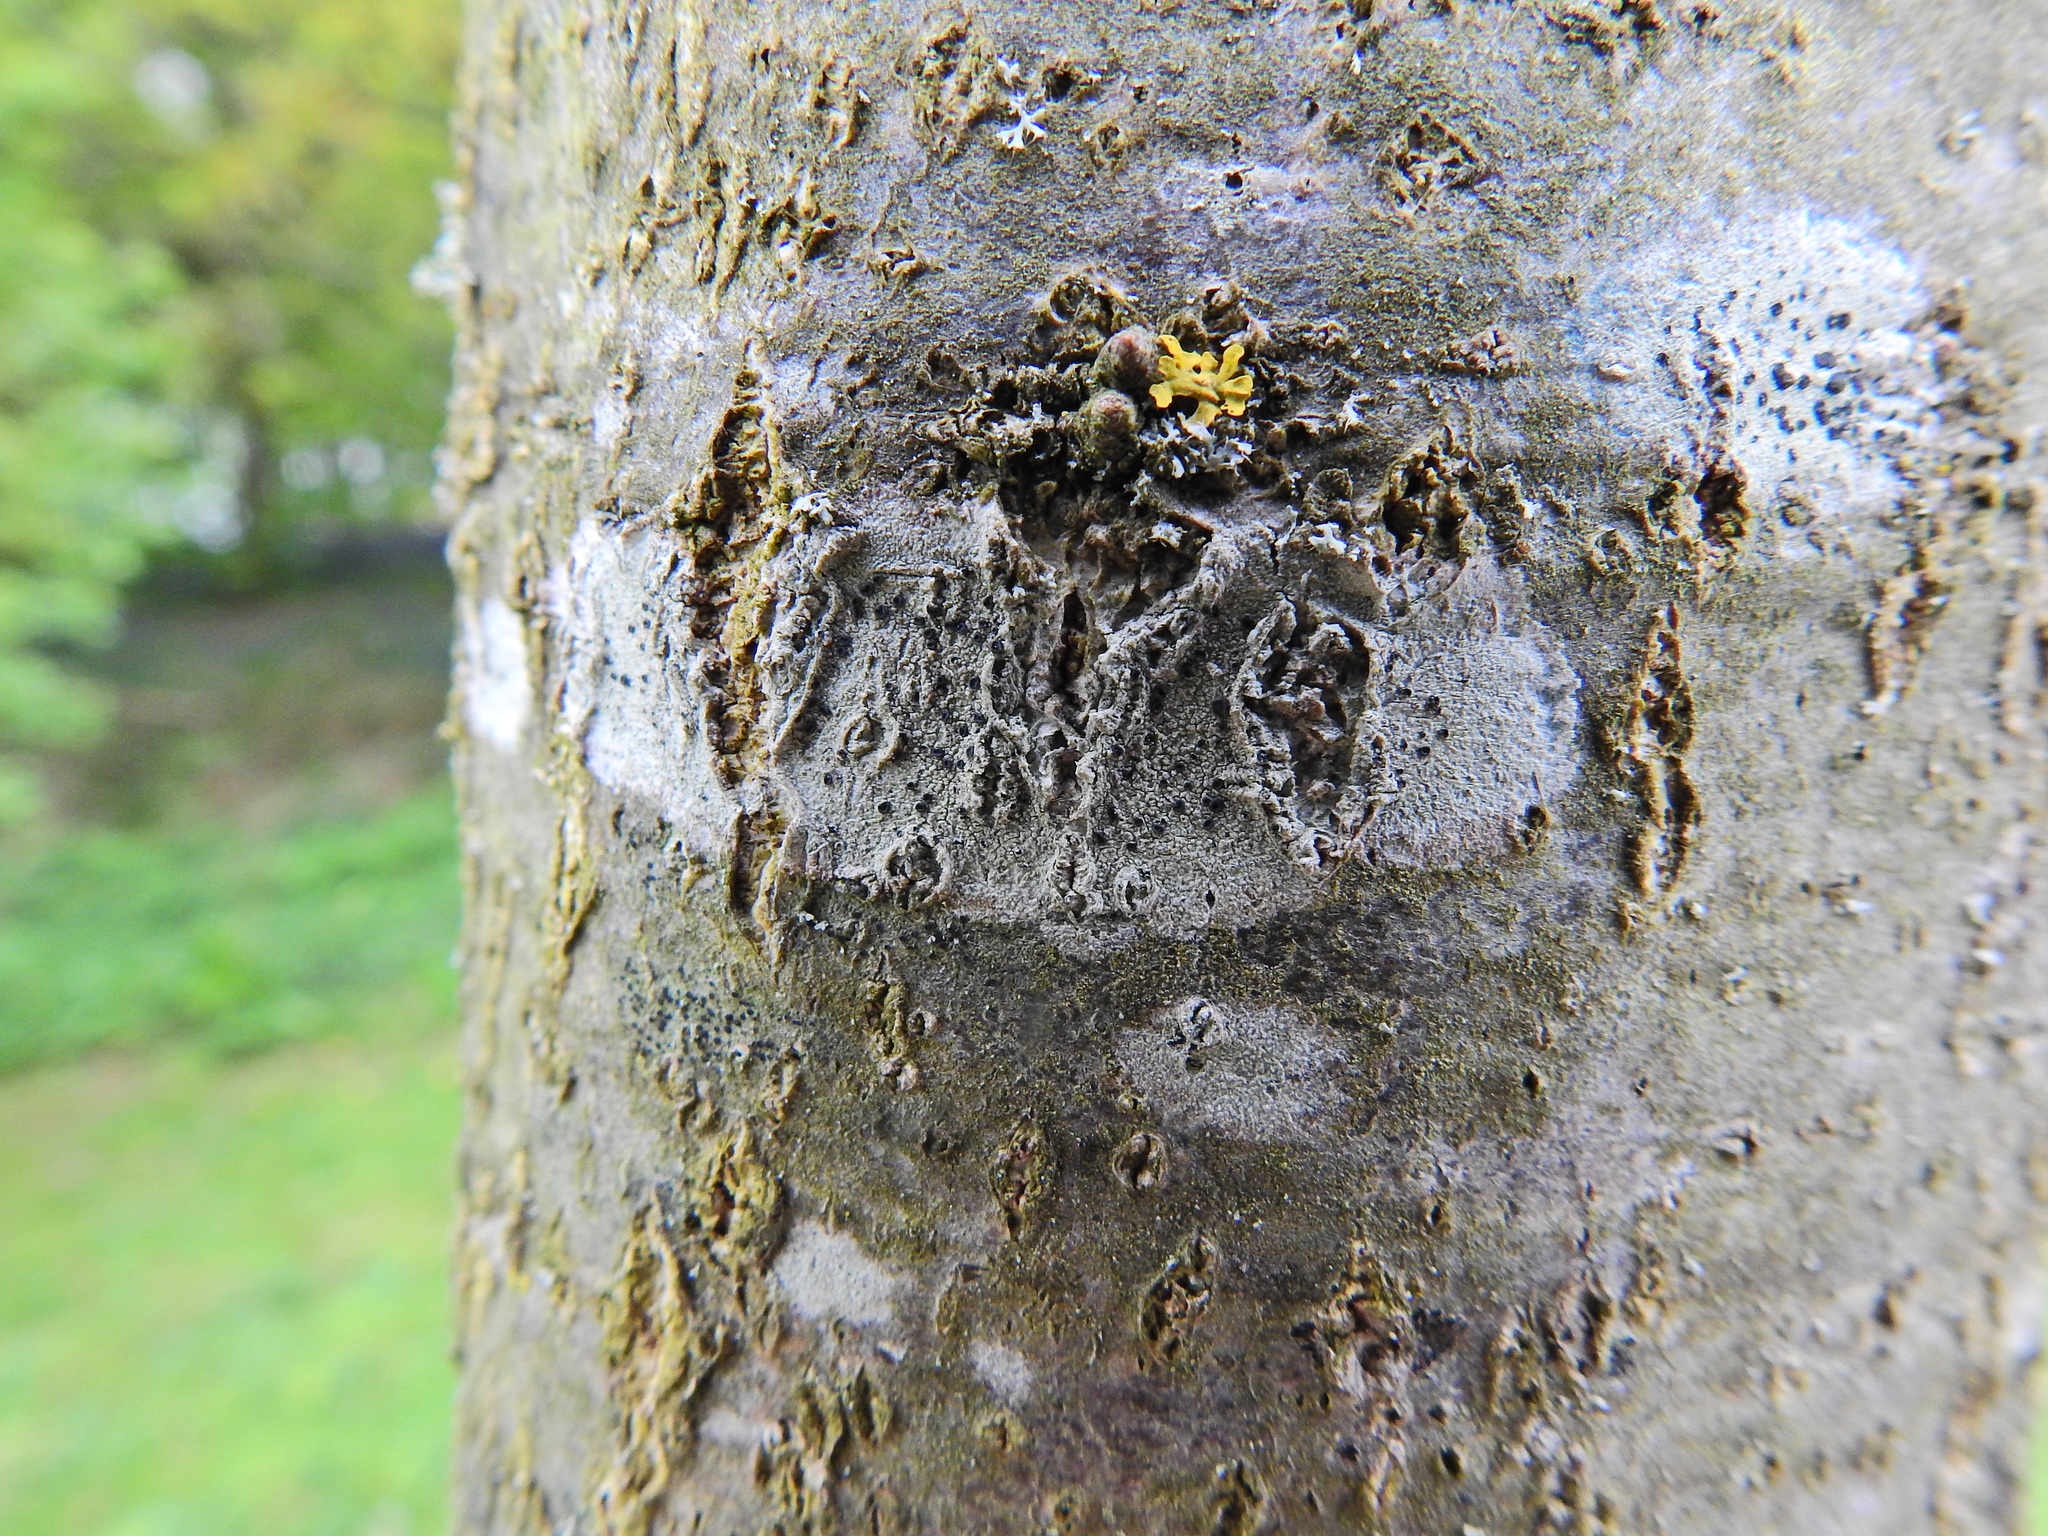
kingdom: Fungi
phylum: Ascomycota
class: Lecanoromycetes
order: Lecanorales
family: Lecanoraceae
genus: Lecidella
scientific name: Lecidella elaeochroma
